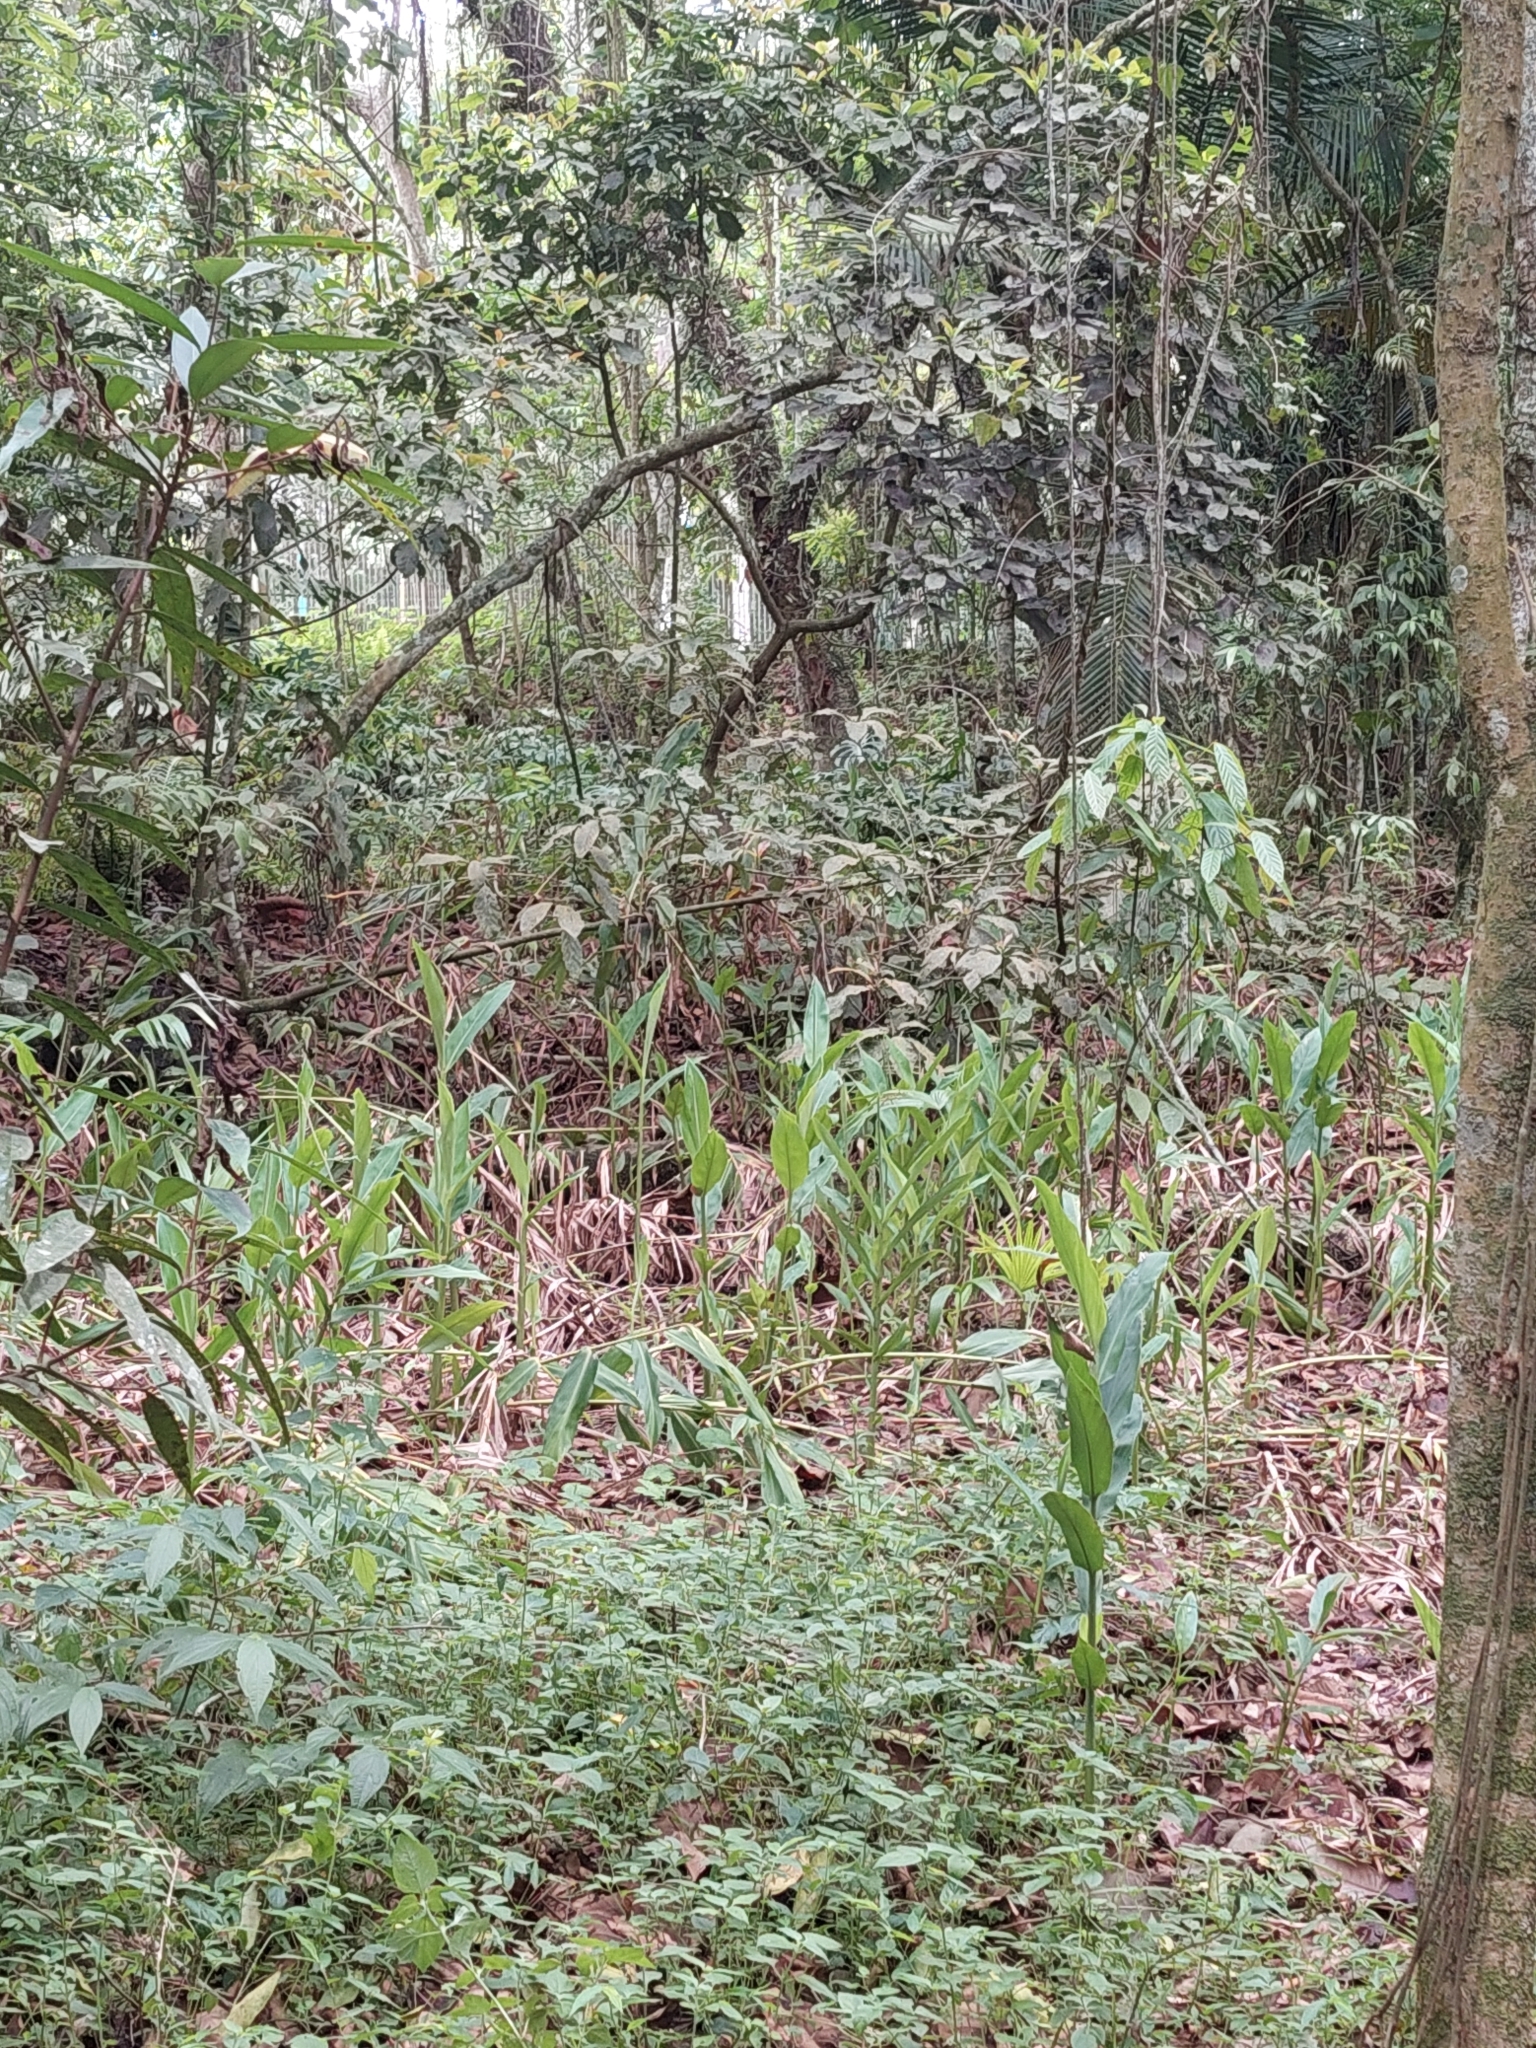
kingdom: Plantae
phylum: Tracheophyta
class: Liliopsida
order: Zingiberales
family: Zingiberaceae
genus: Hedychium
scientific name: Hedychium coronarium
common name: White garland-lily
